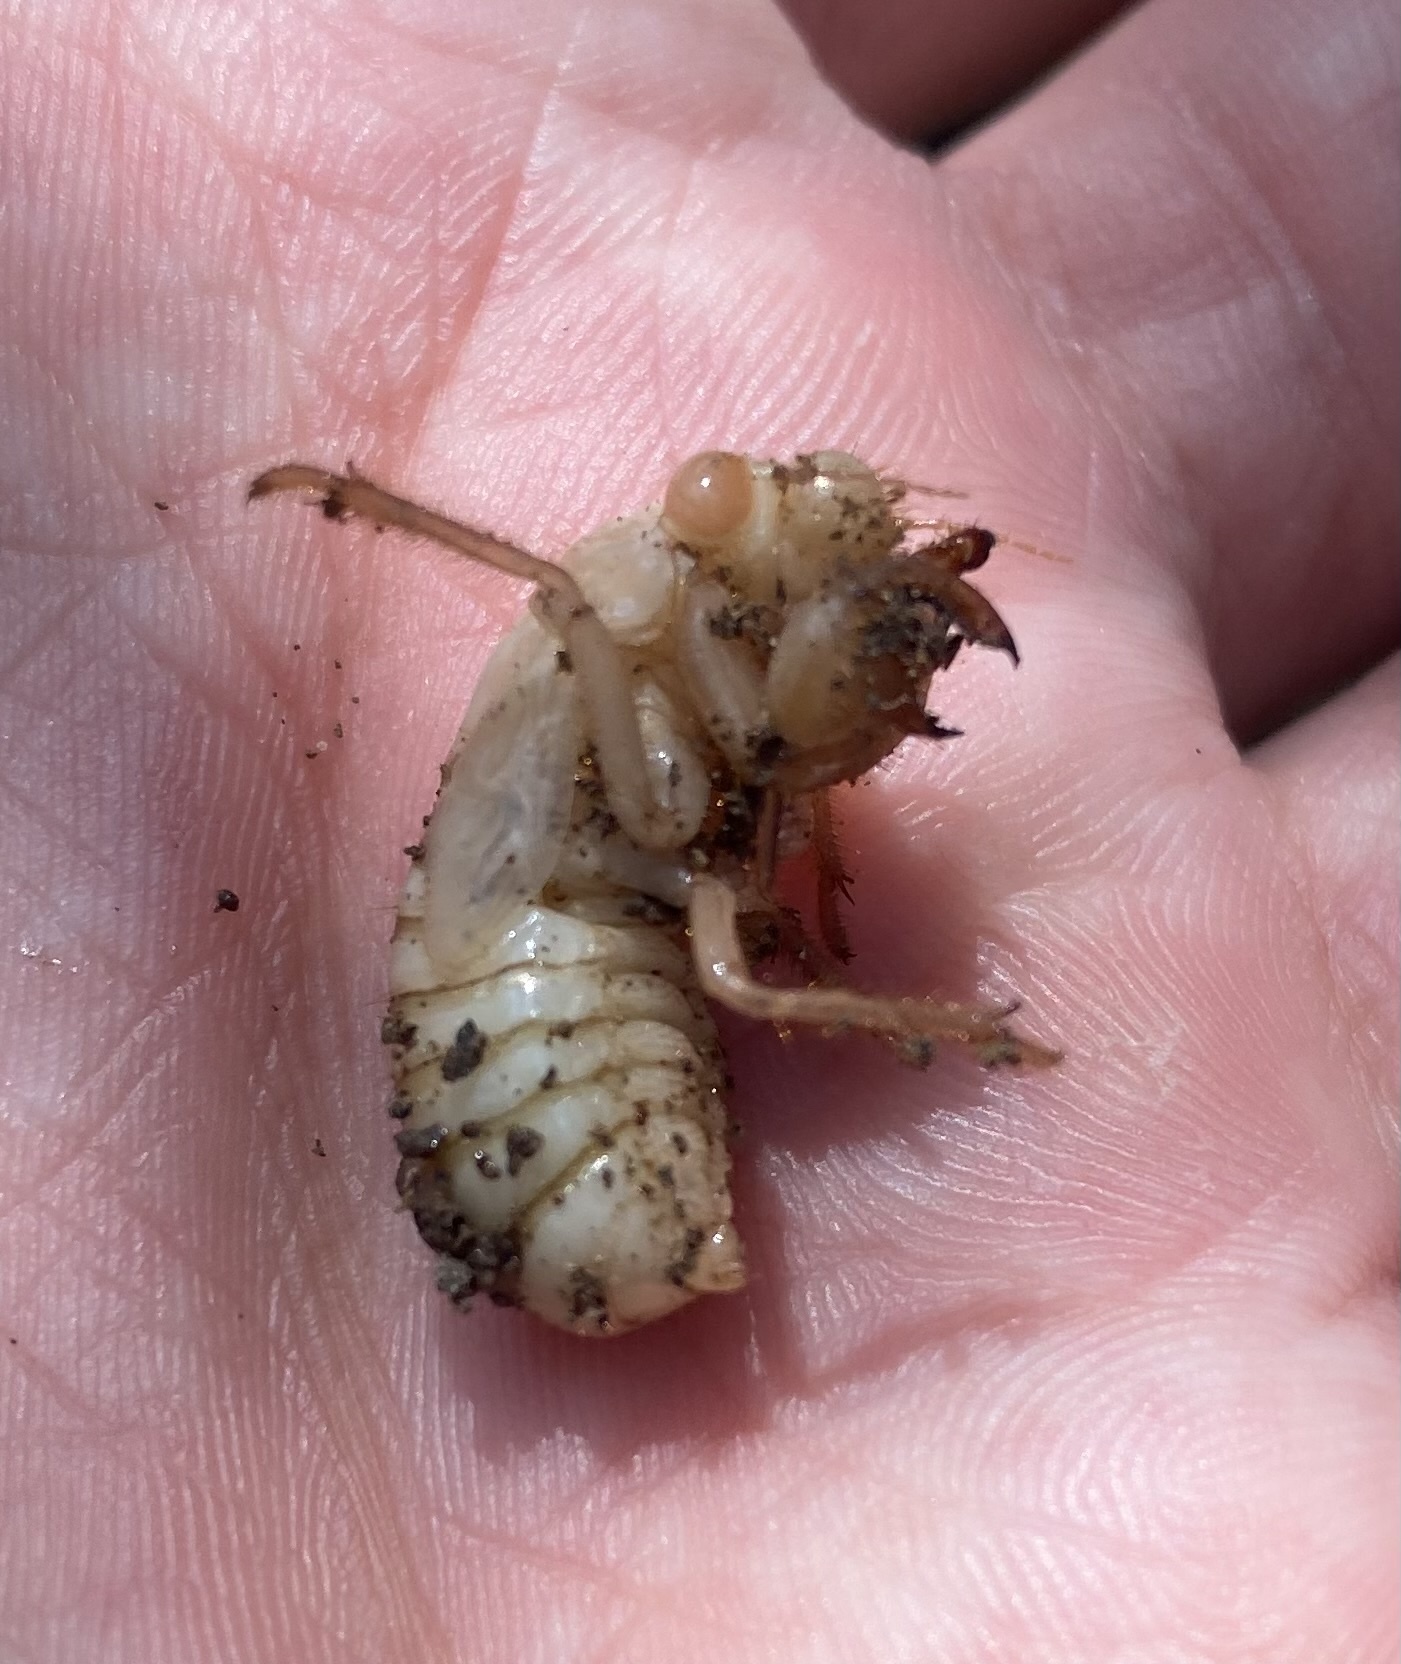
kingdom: Animalia
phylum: Arthropoda
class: Insecta
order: Hemiptera
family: Cicadidae
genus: Cicada
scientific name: Cicada orni
